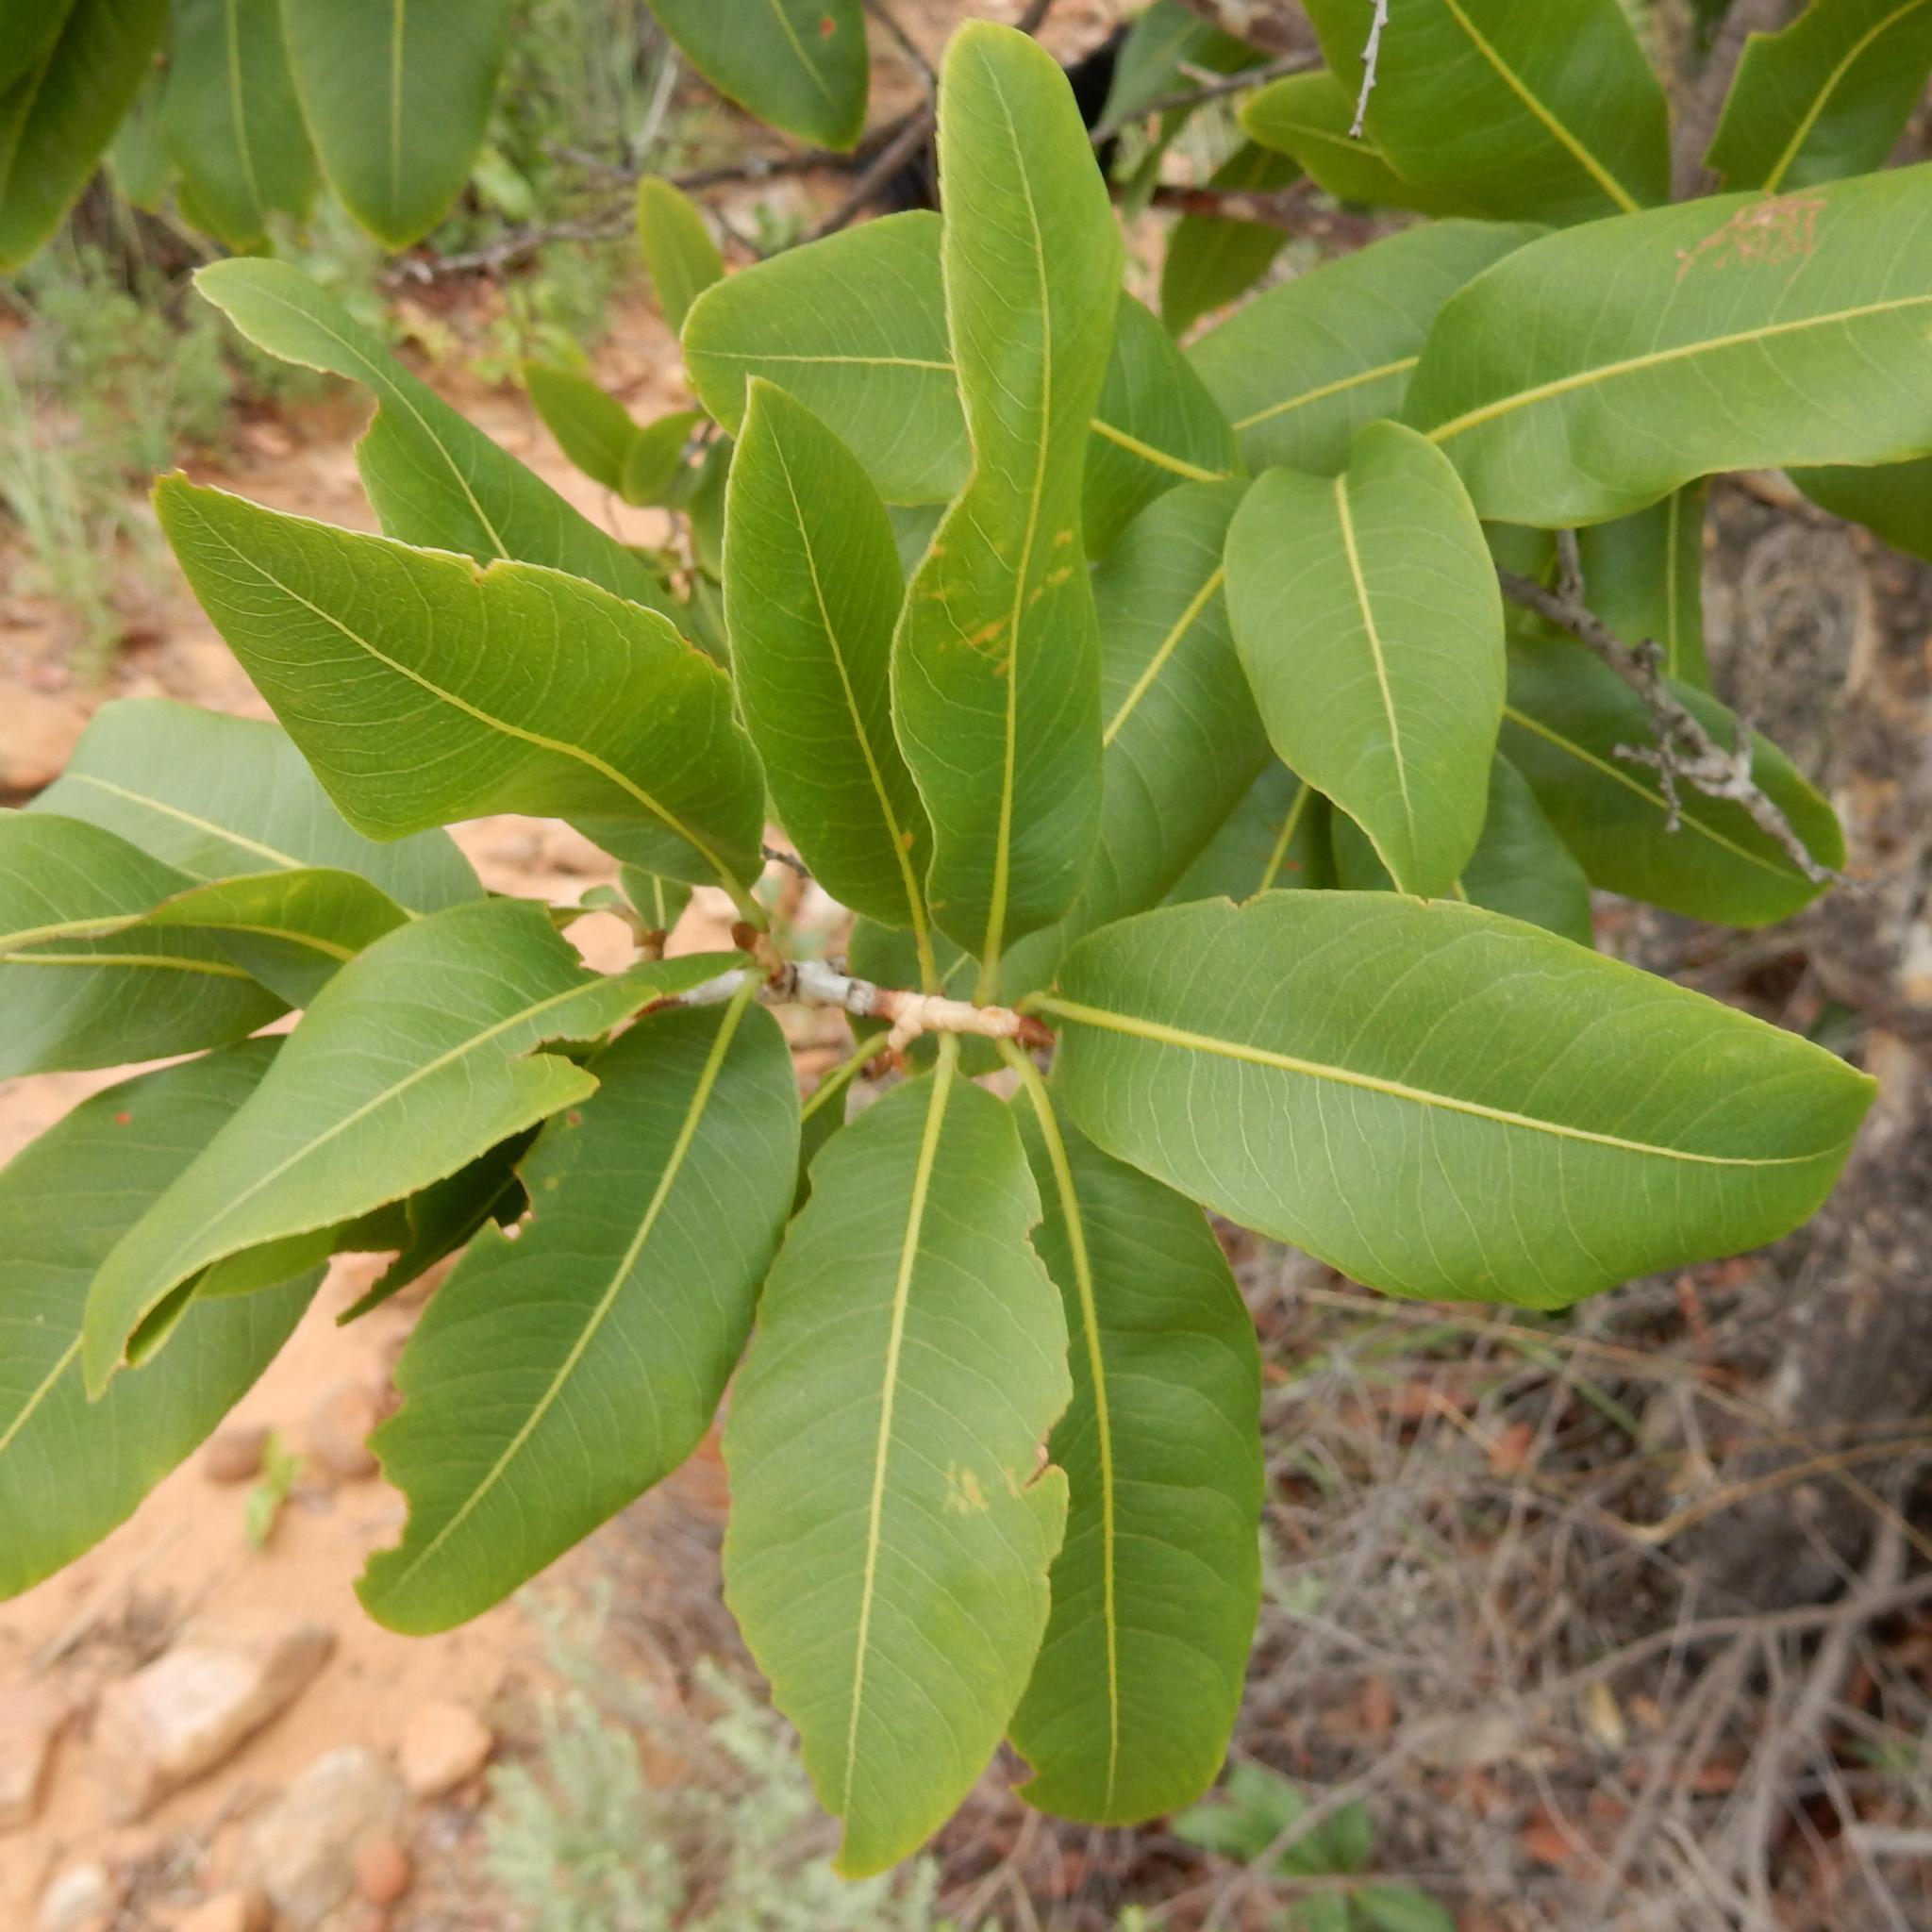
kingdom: Plantae
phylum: Tracheophyta
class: Magnoliopsida
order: Malpighiales
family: Ochnaceae
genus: Ochna
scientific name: Ochna pulchra
